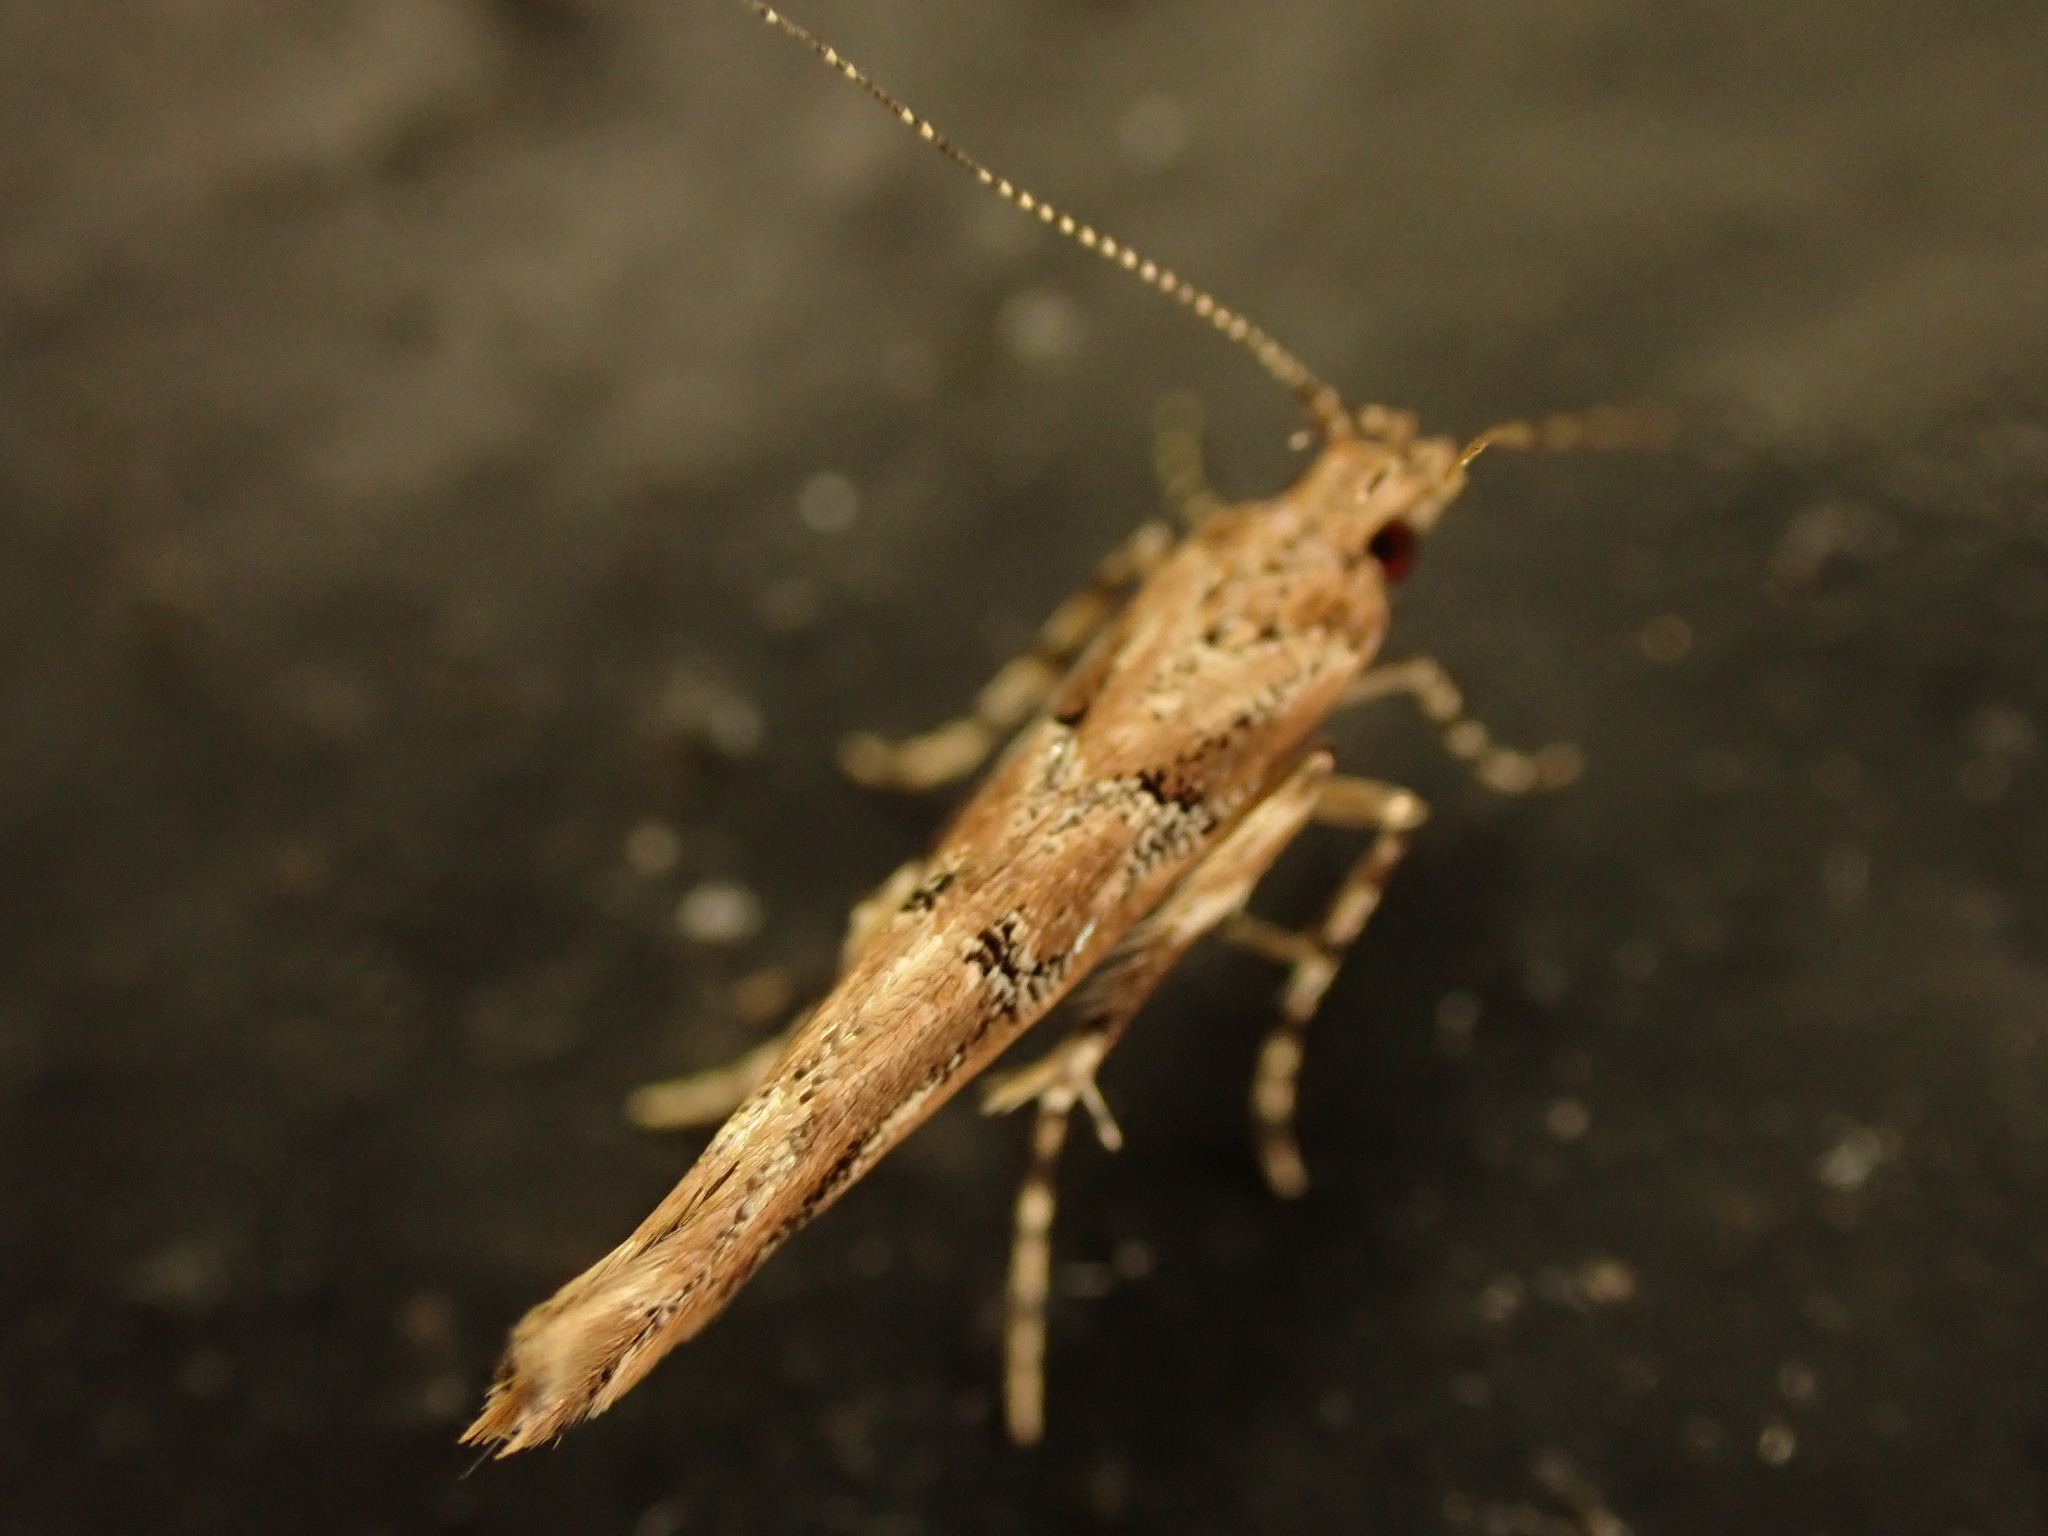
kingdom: Animalia
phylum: Arthropoda
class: Insecta
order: Lepidoptera
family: Cosmopterigidae
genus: Pyroderces
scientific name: Pyroderces aellotricha
